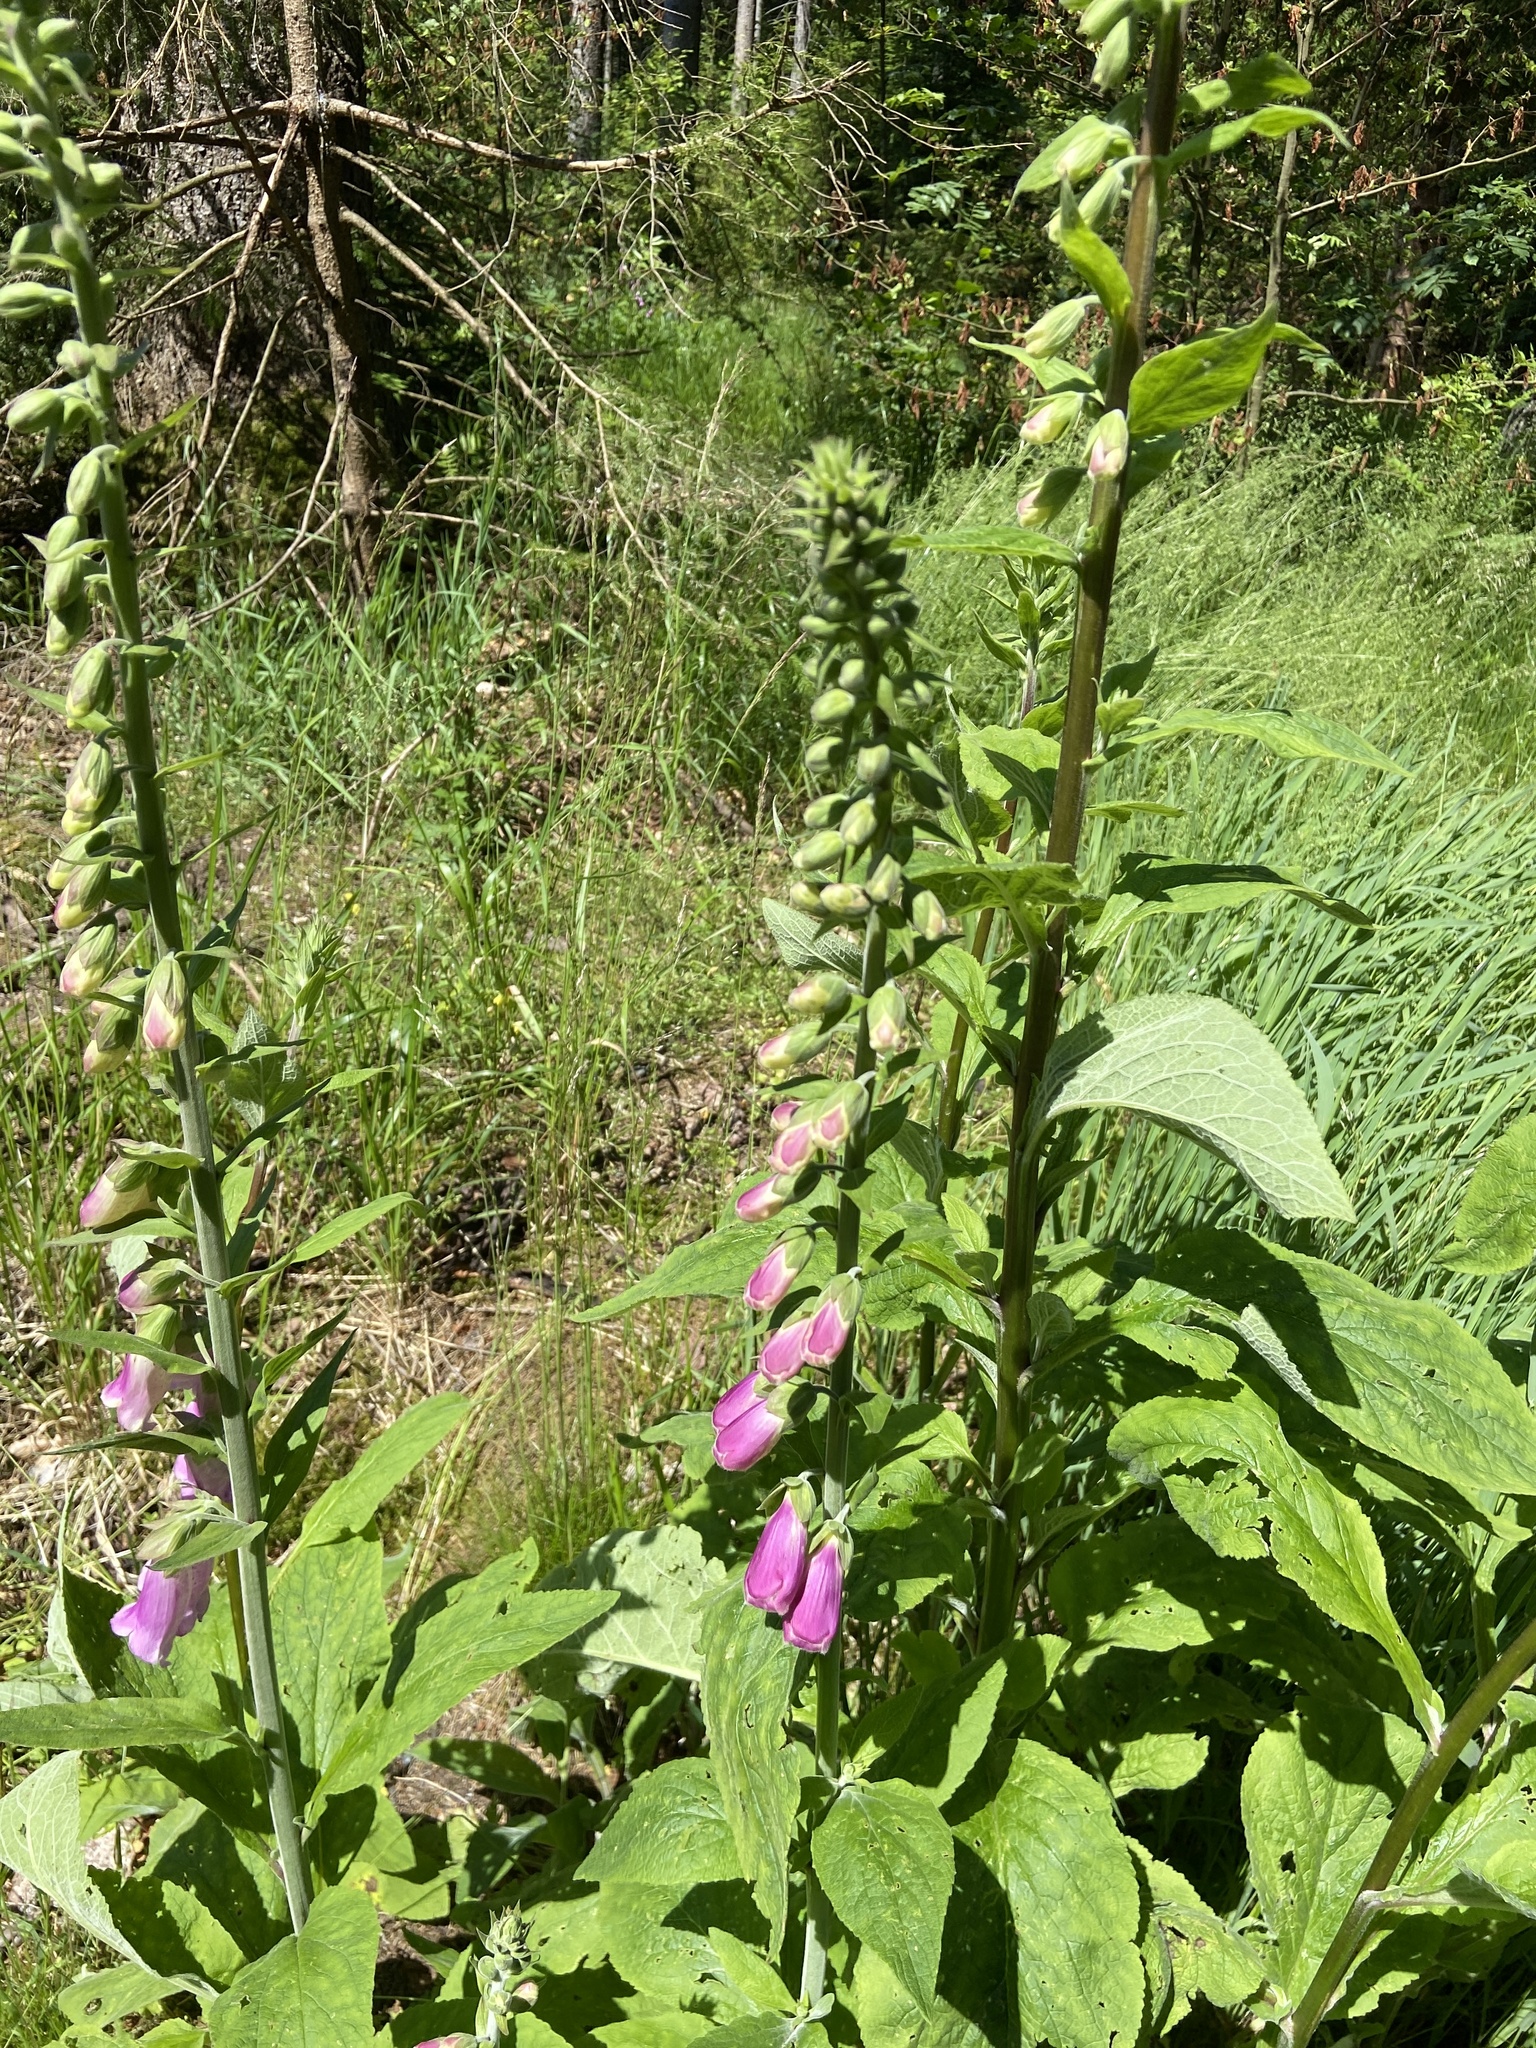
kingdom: Plantae
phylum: Tracheophyta
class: Magnoliopsida
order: Lamiales
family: Plantaginaceae
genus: Digitalis
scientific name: Digitalis purpurea
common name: Foxglove
